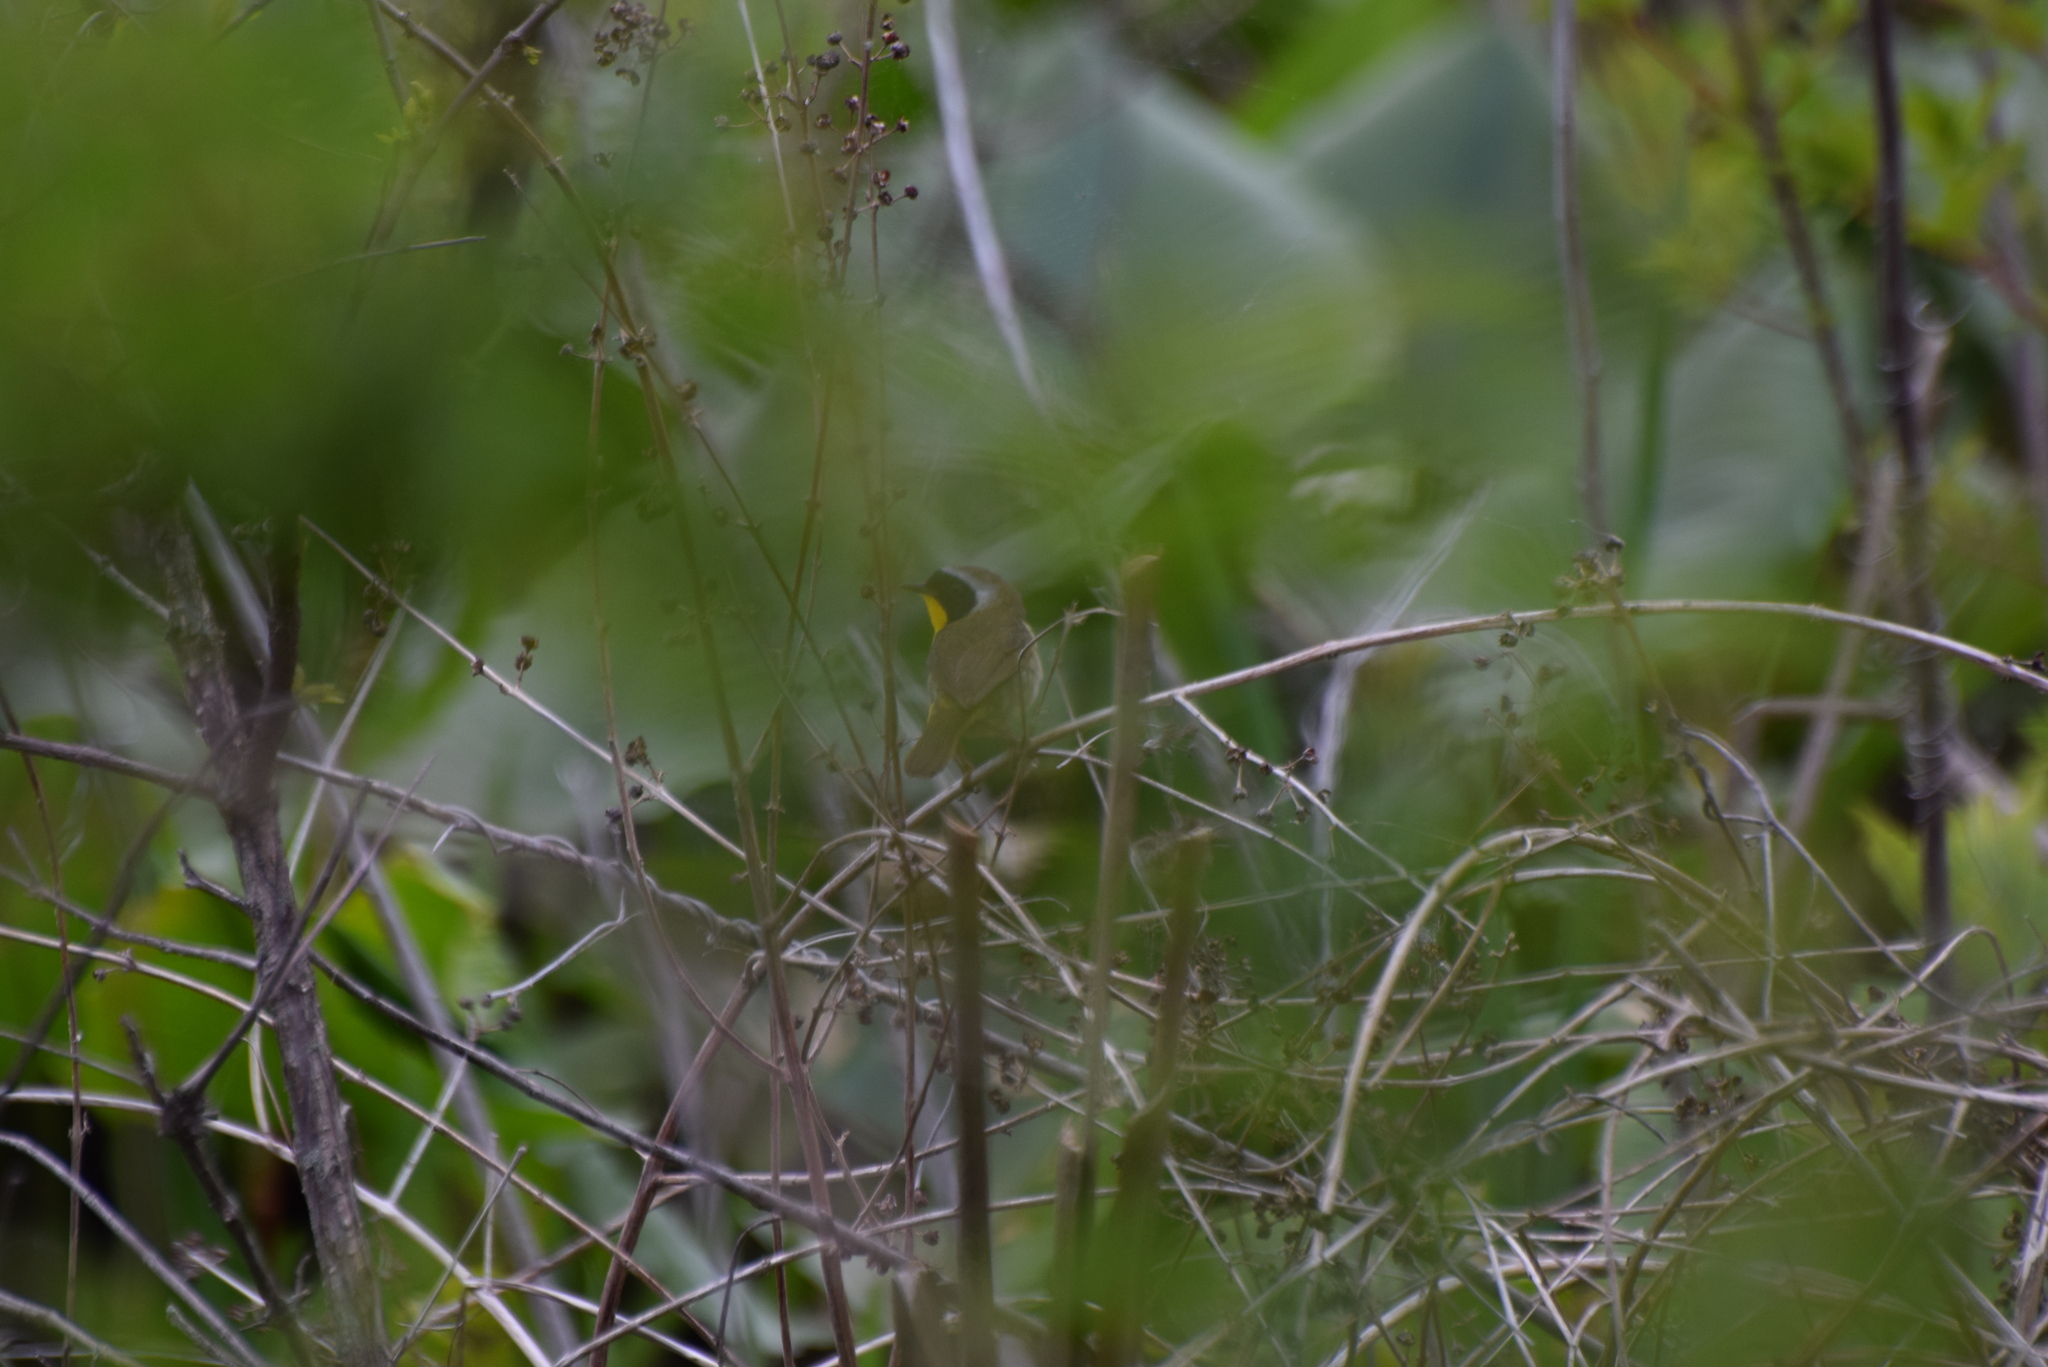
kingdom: Animalia
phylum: Chordata
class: Aves
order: Passeriformes
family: Parulidae
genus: Geothlypis
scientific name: Geothlypis trichas
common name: Common yellowthroat
